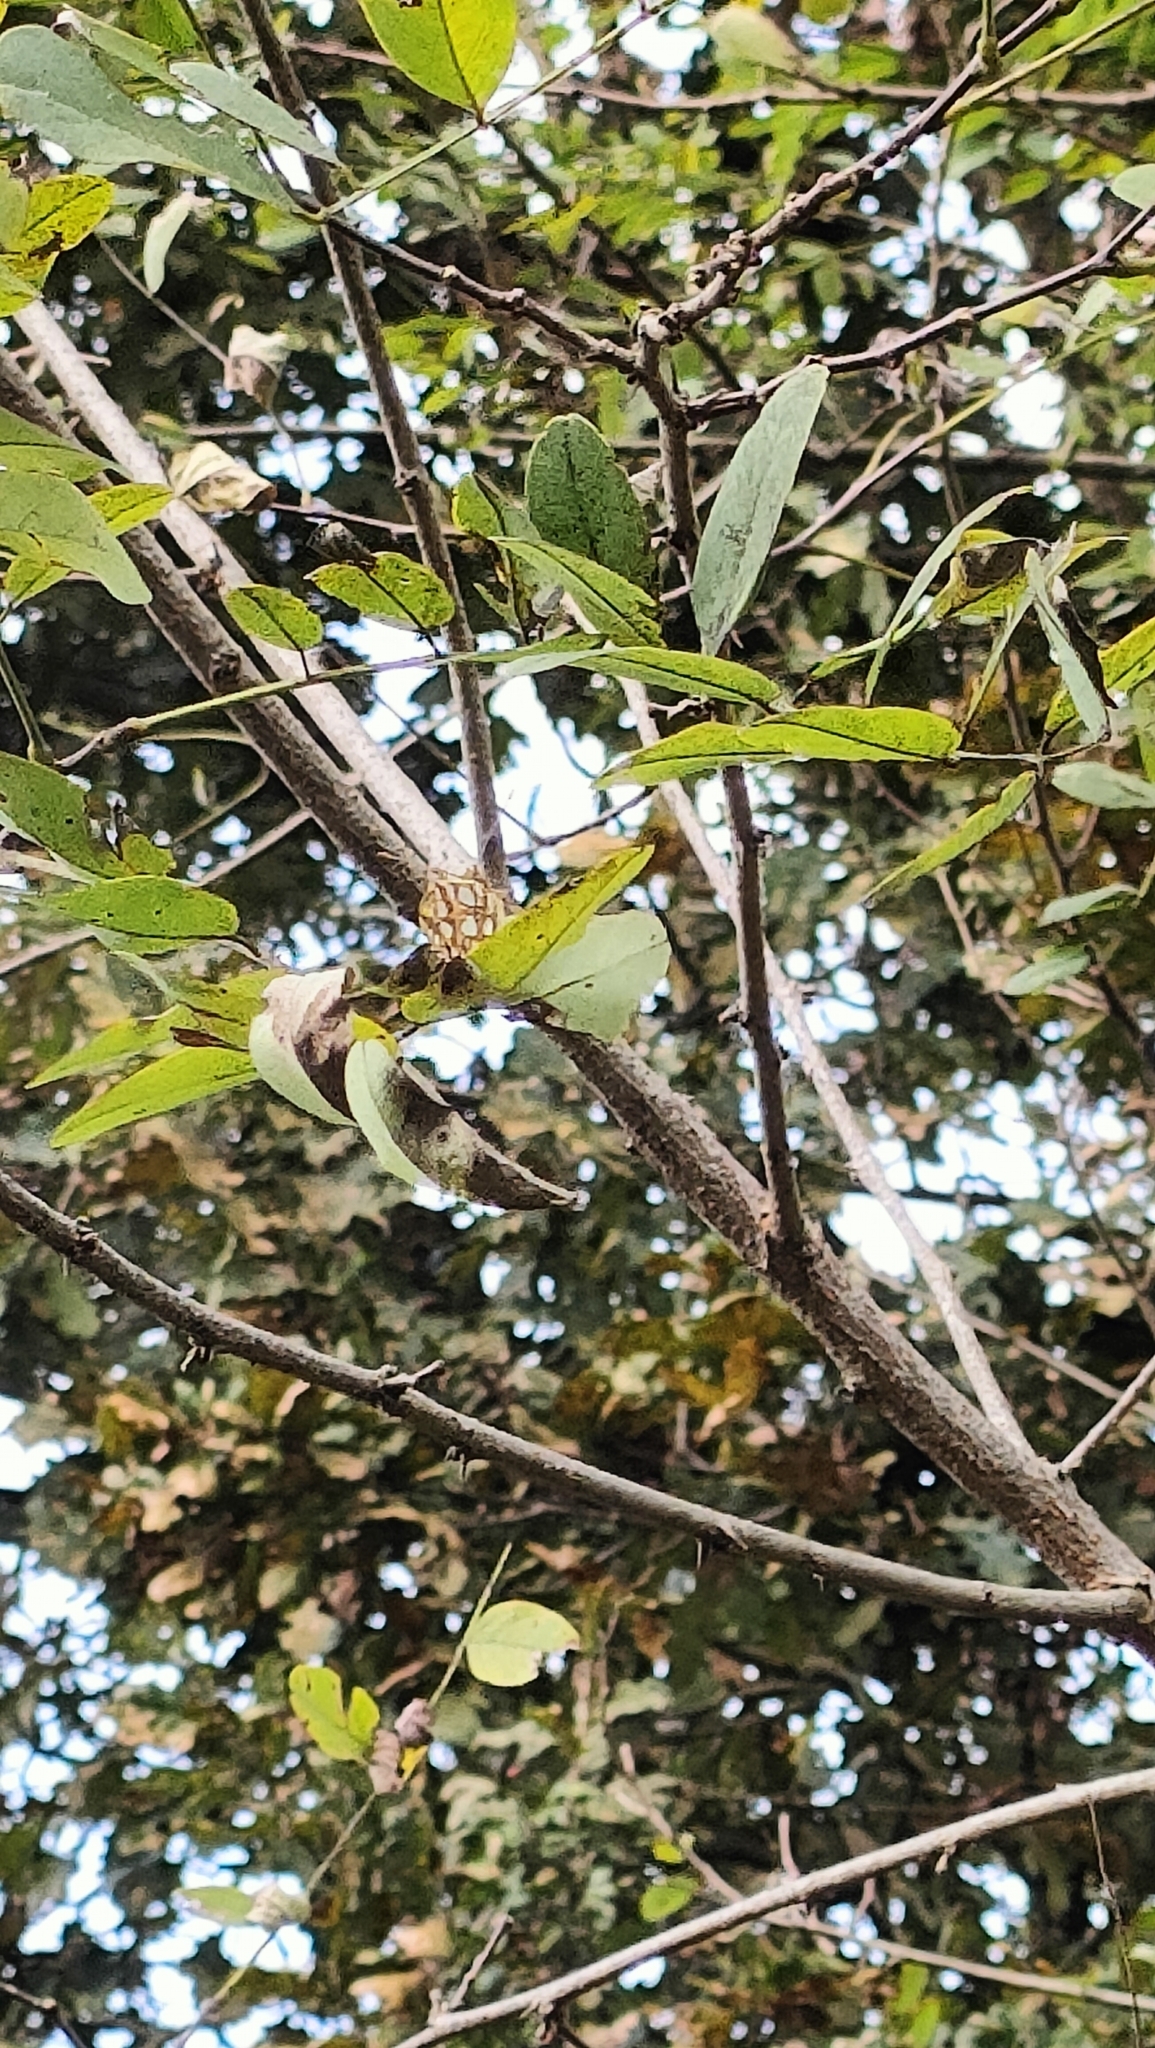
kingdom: Animalia
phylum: Arthropoda
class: Insecta
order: Lepidoptera
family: Nymphalidae
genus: Issoria
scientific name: Issoria lathonia
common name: Queen of spain fritillary
